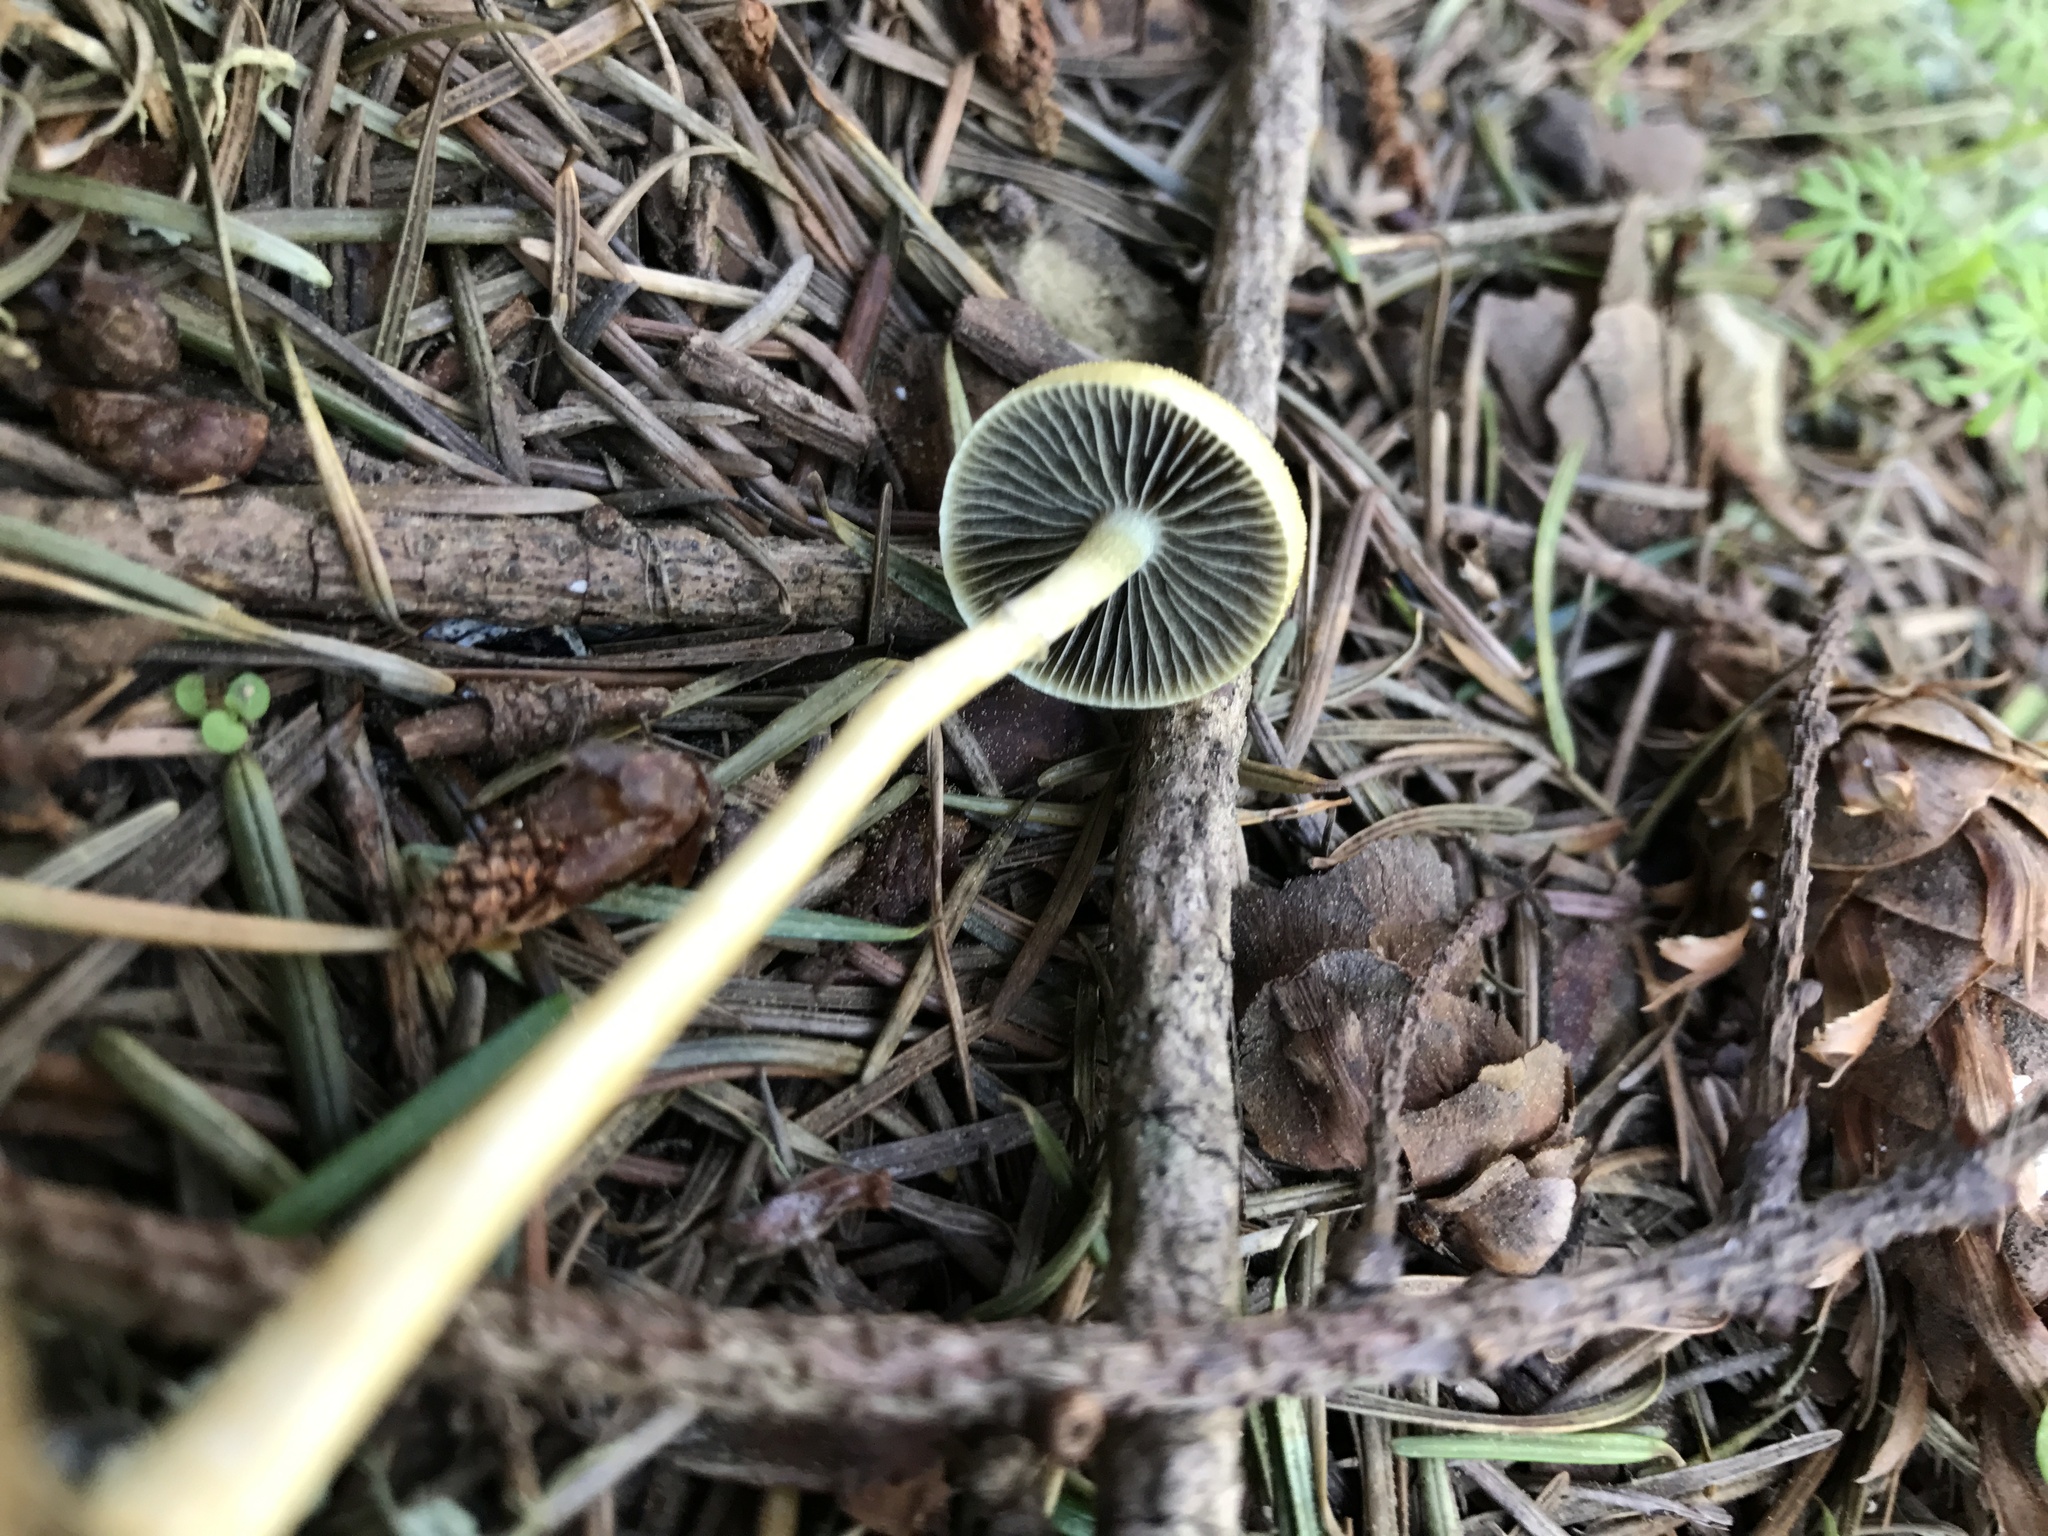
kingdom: Fungi
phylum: Basidiomycota
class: Agaricomycetes
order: Agaricales
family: Strophariaceae
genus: Protostropharia
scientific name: Protostropharia dorsipora
